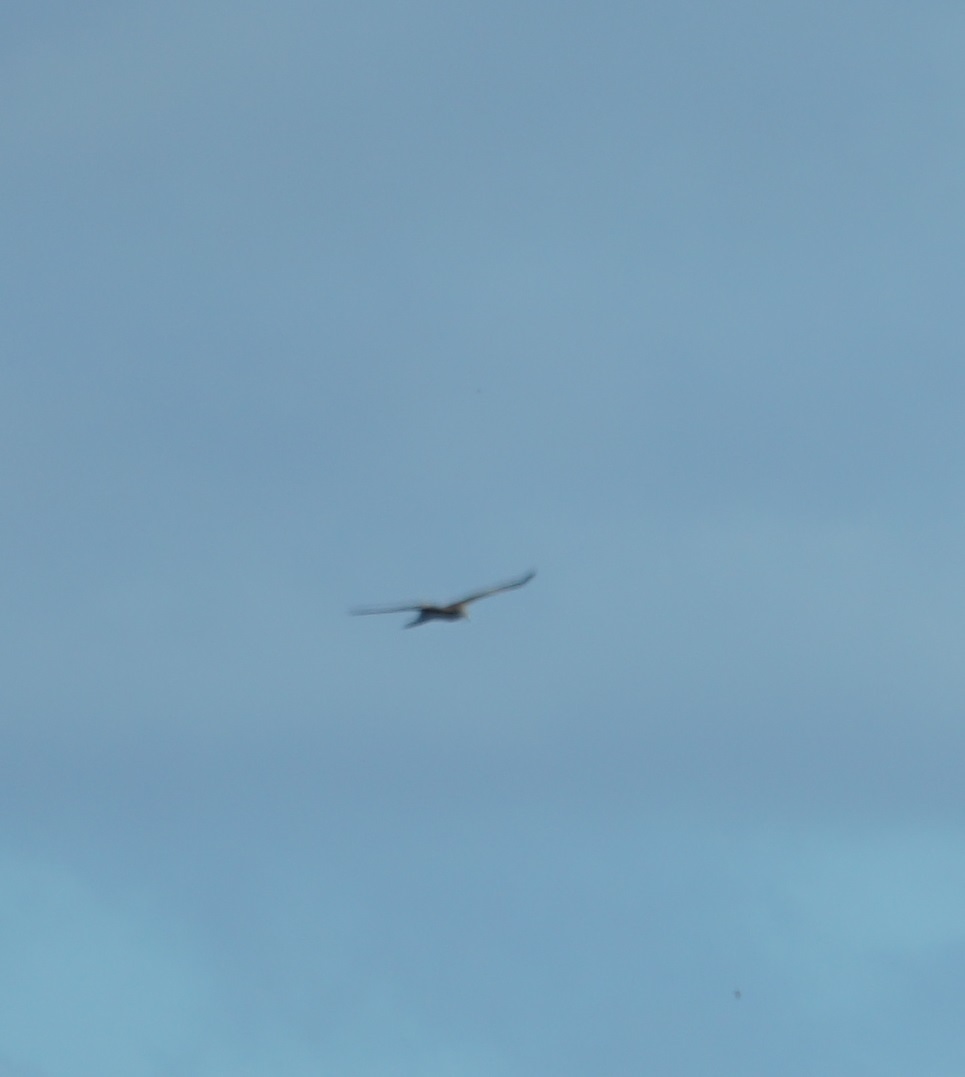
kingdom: Animalia
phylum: Chordata
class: Aves
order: Accipitriformes
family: Accipitridae
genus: Milvus
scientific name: Milvus migrans
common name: Black kite
